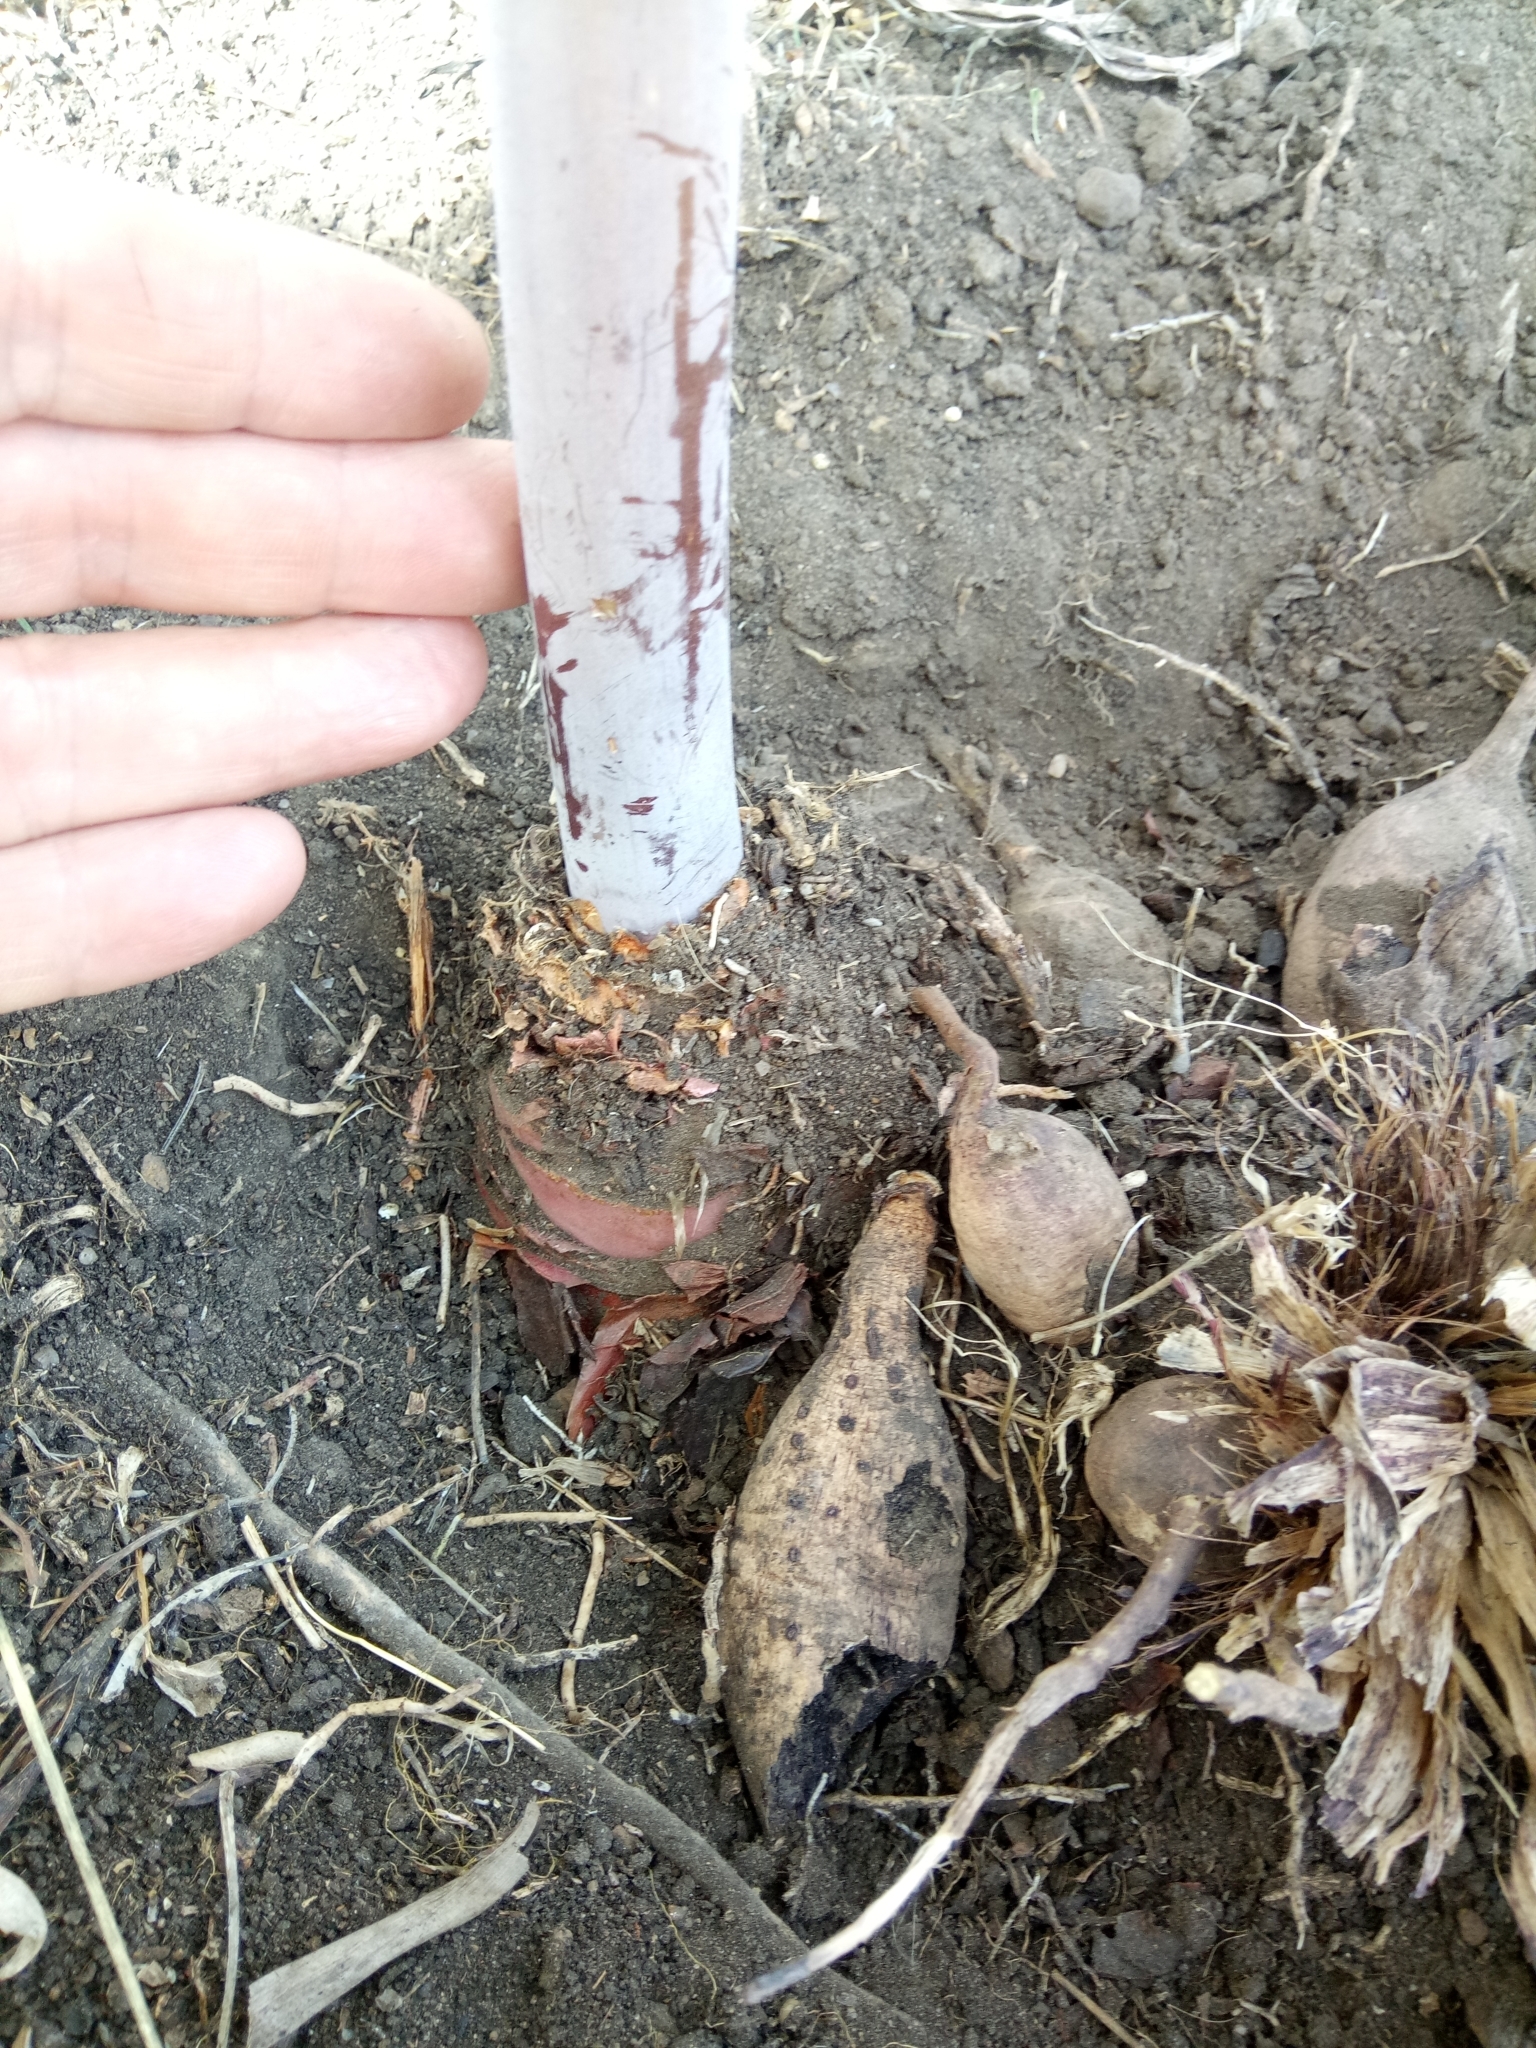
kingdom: Plantae
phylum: Tracheophyta
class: Liliopsida
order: Asparagales
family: Asparagaceae
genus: Drimia
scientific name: Drimia numidica
